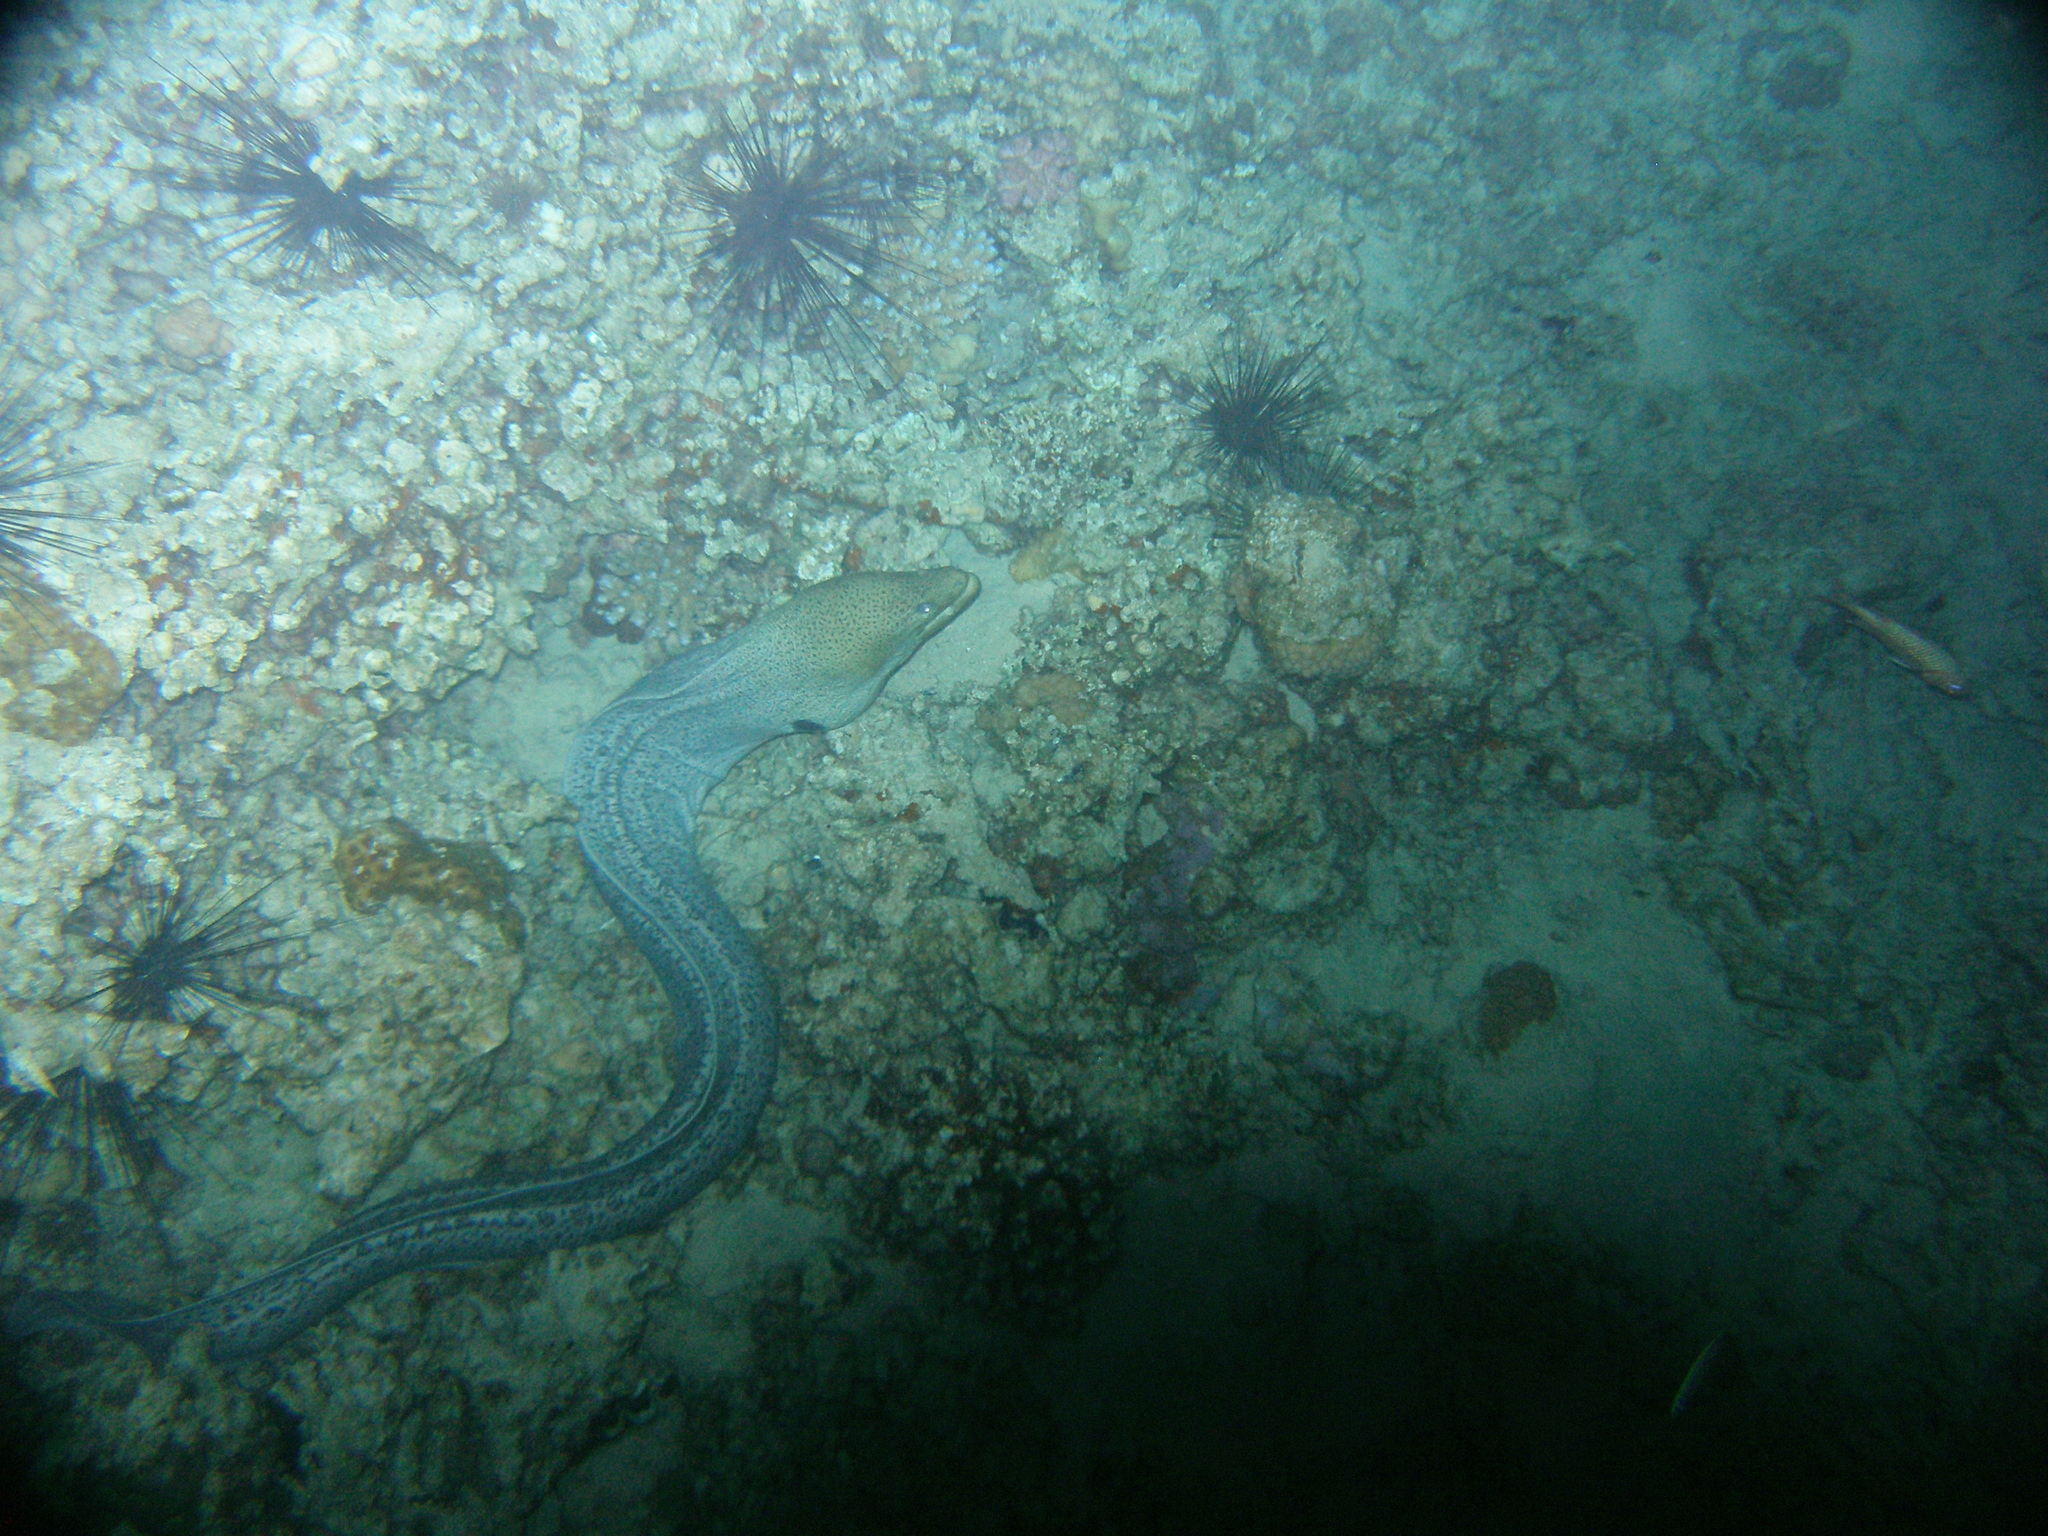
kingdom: Animalia
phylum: Chordata
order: Anguilliformes
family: Muraenidae
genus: Gymnothorax
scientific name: Gymnothorax javanicus
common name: Giant moray
